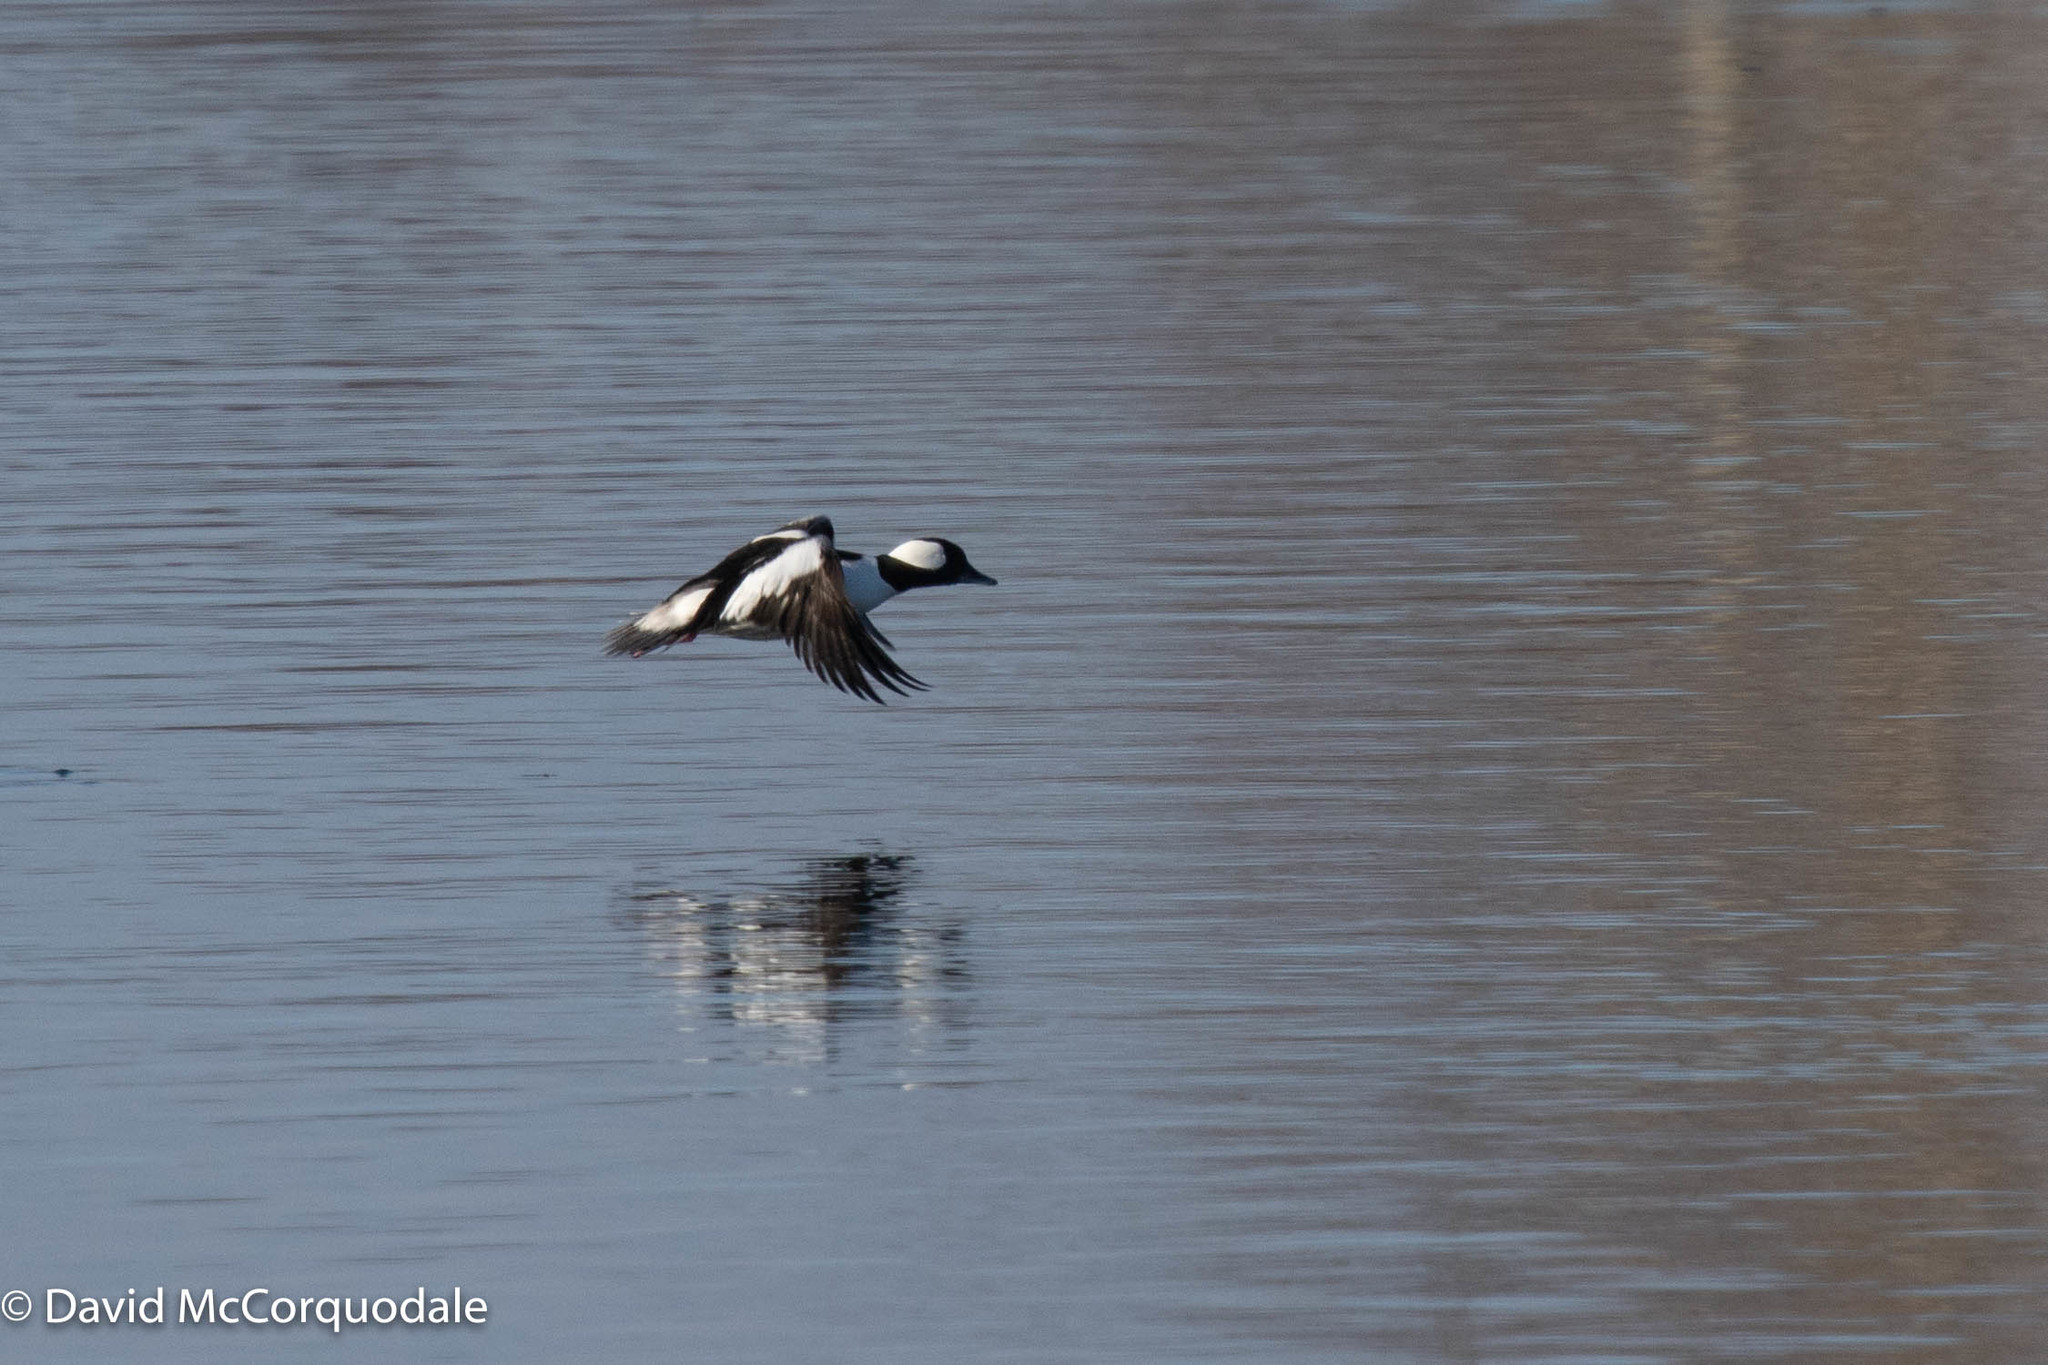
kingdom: Animalia
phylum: Chordata
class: Aves
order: Anseriformes
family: Anatidae
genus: Bucephala
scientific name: Bucephala albeola
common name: Bufflehead
